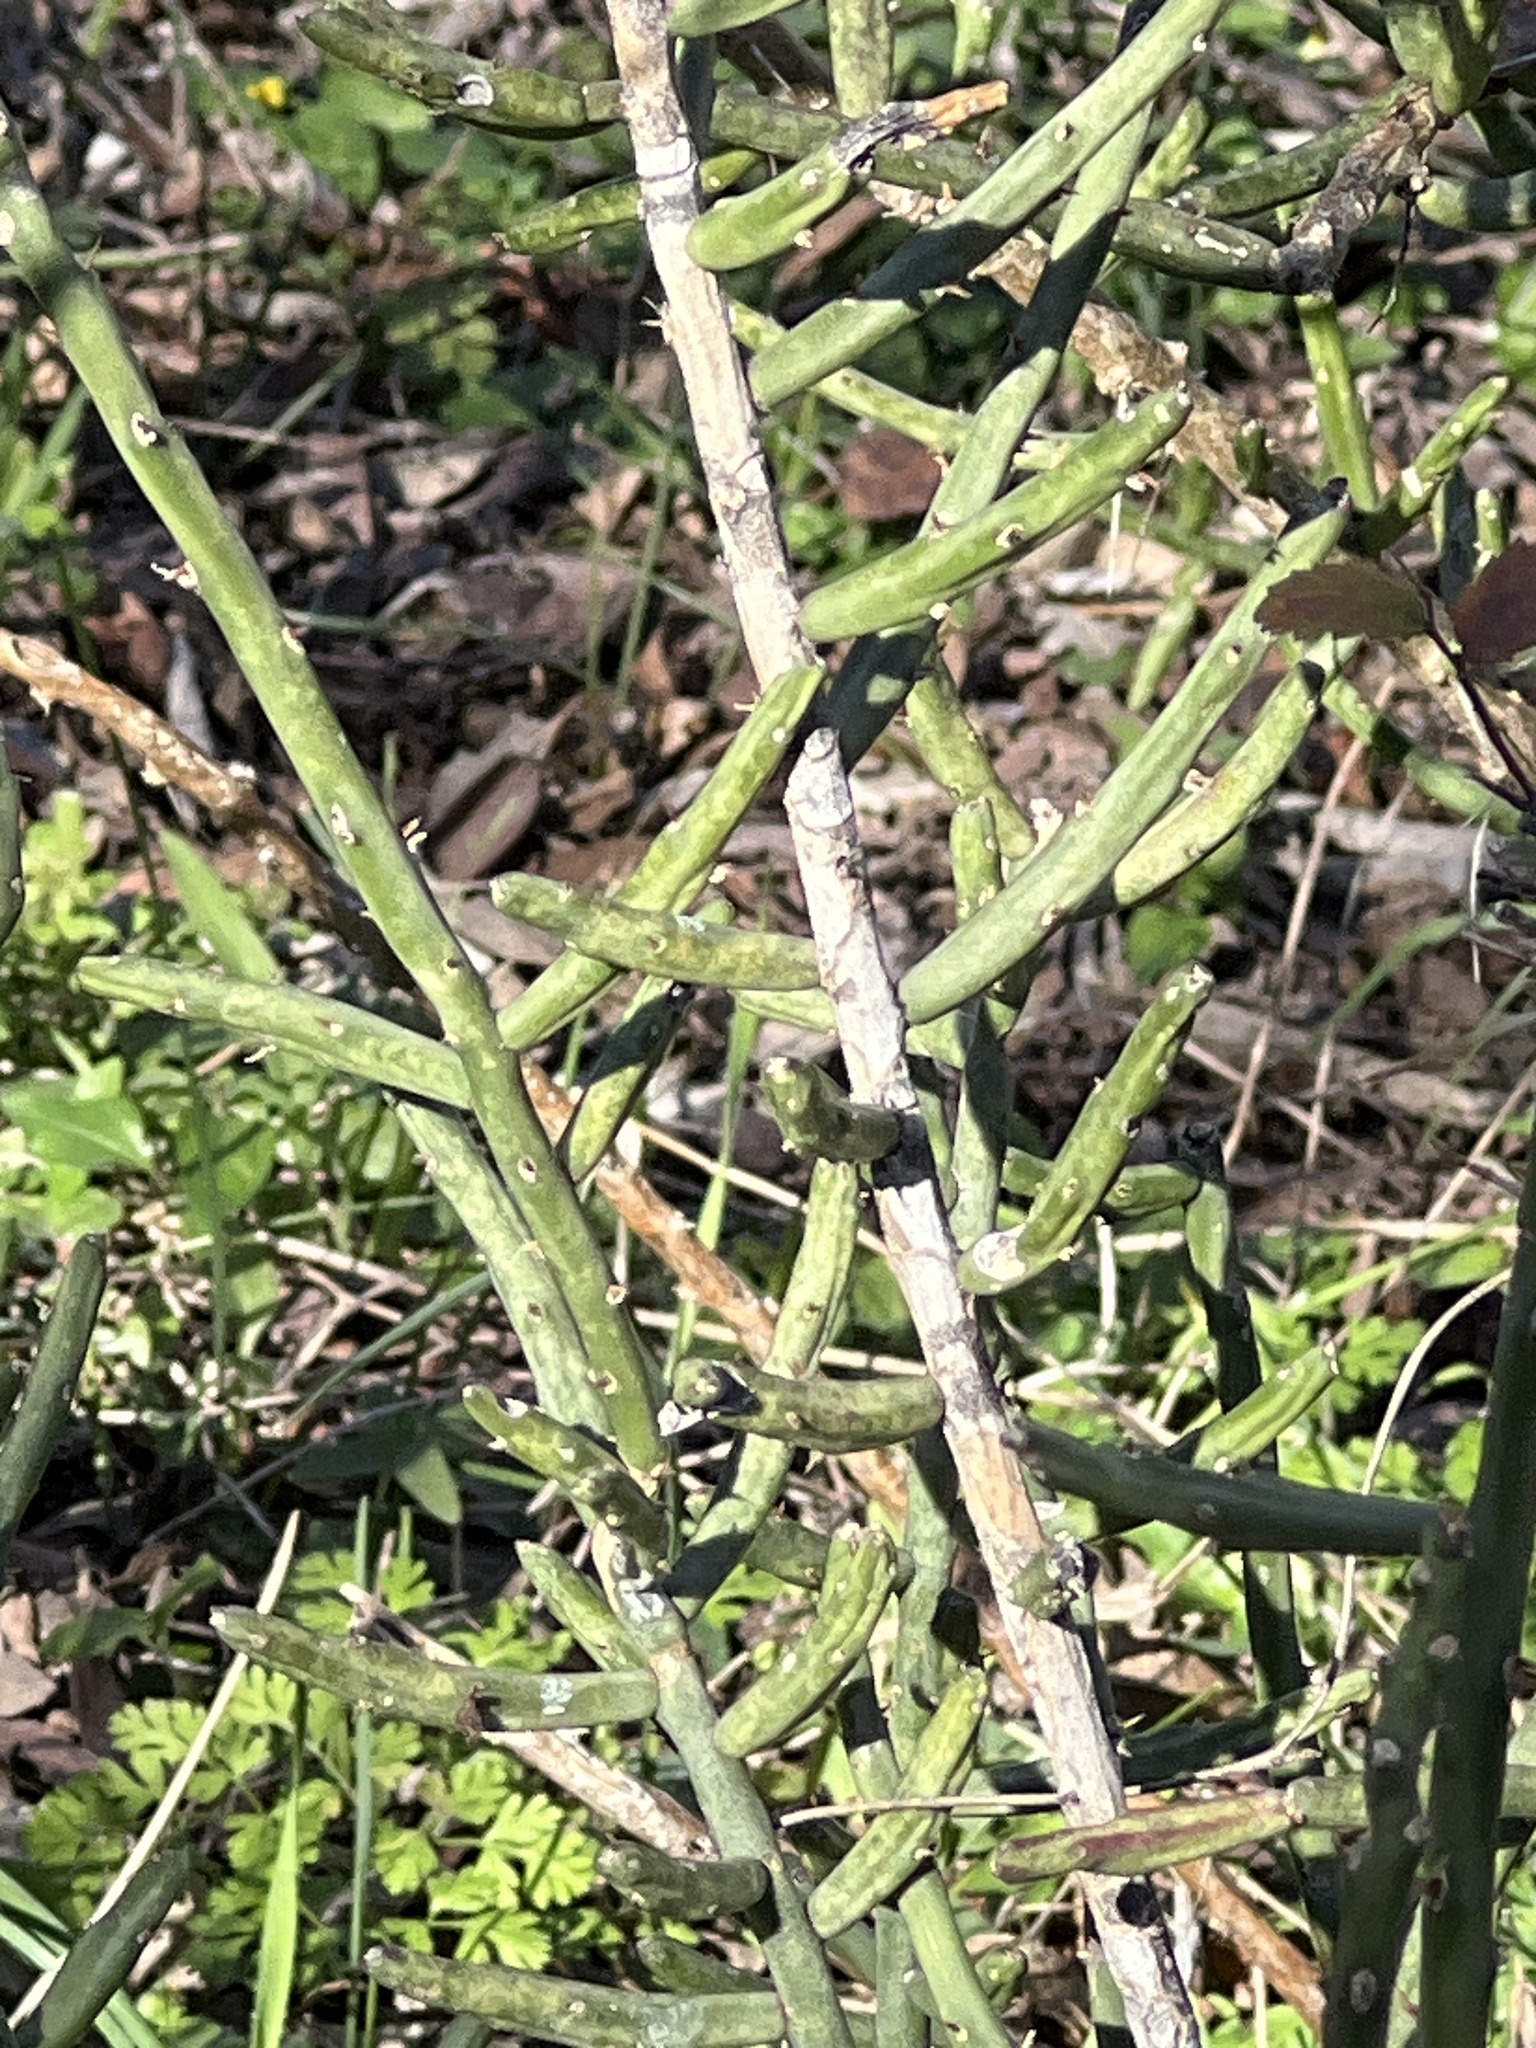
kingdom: Plantae
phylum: Tracheophyta
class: Magnoliopsida
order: Caryophyllales
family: Cactaceae
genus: Cylindropuntia
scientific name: Cylindropuntia leptocaulis
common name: Christmas cactus
